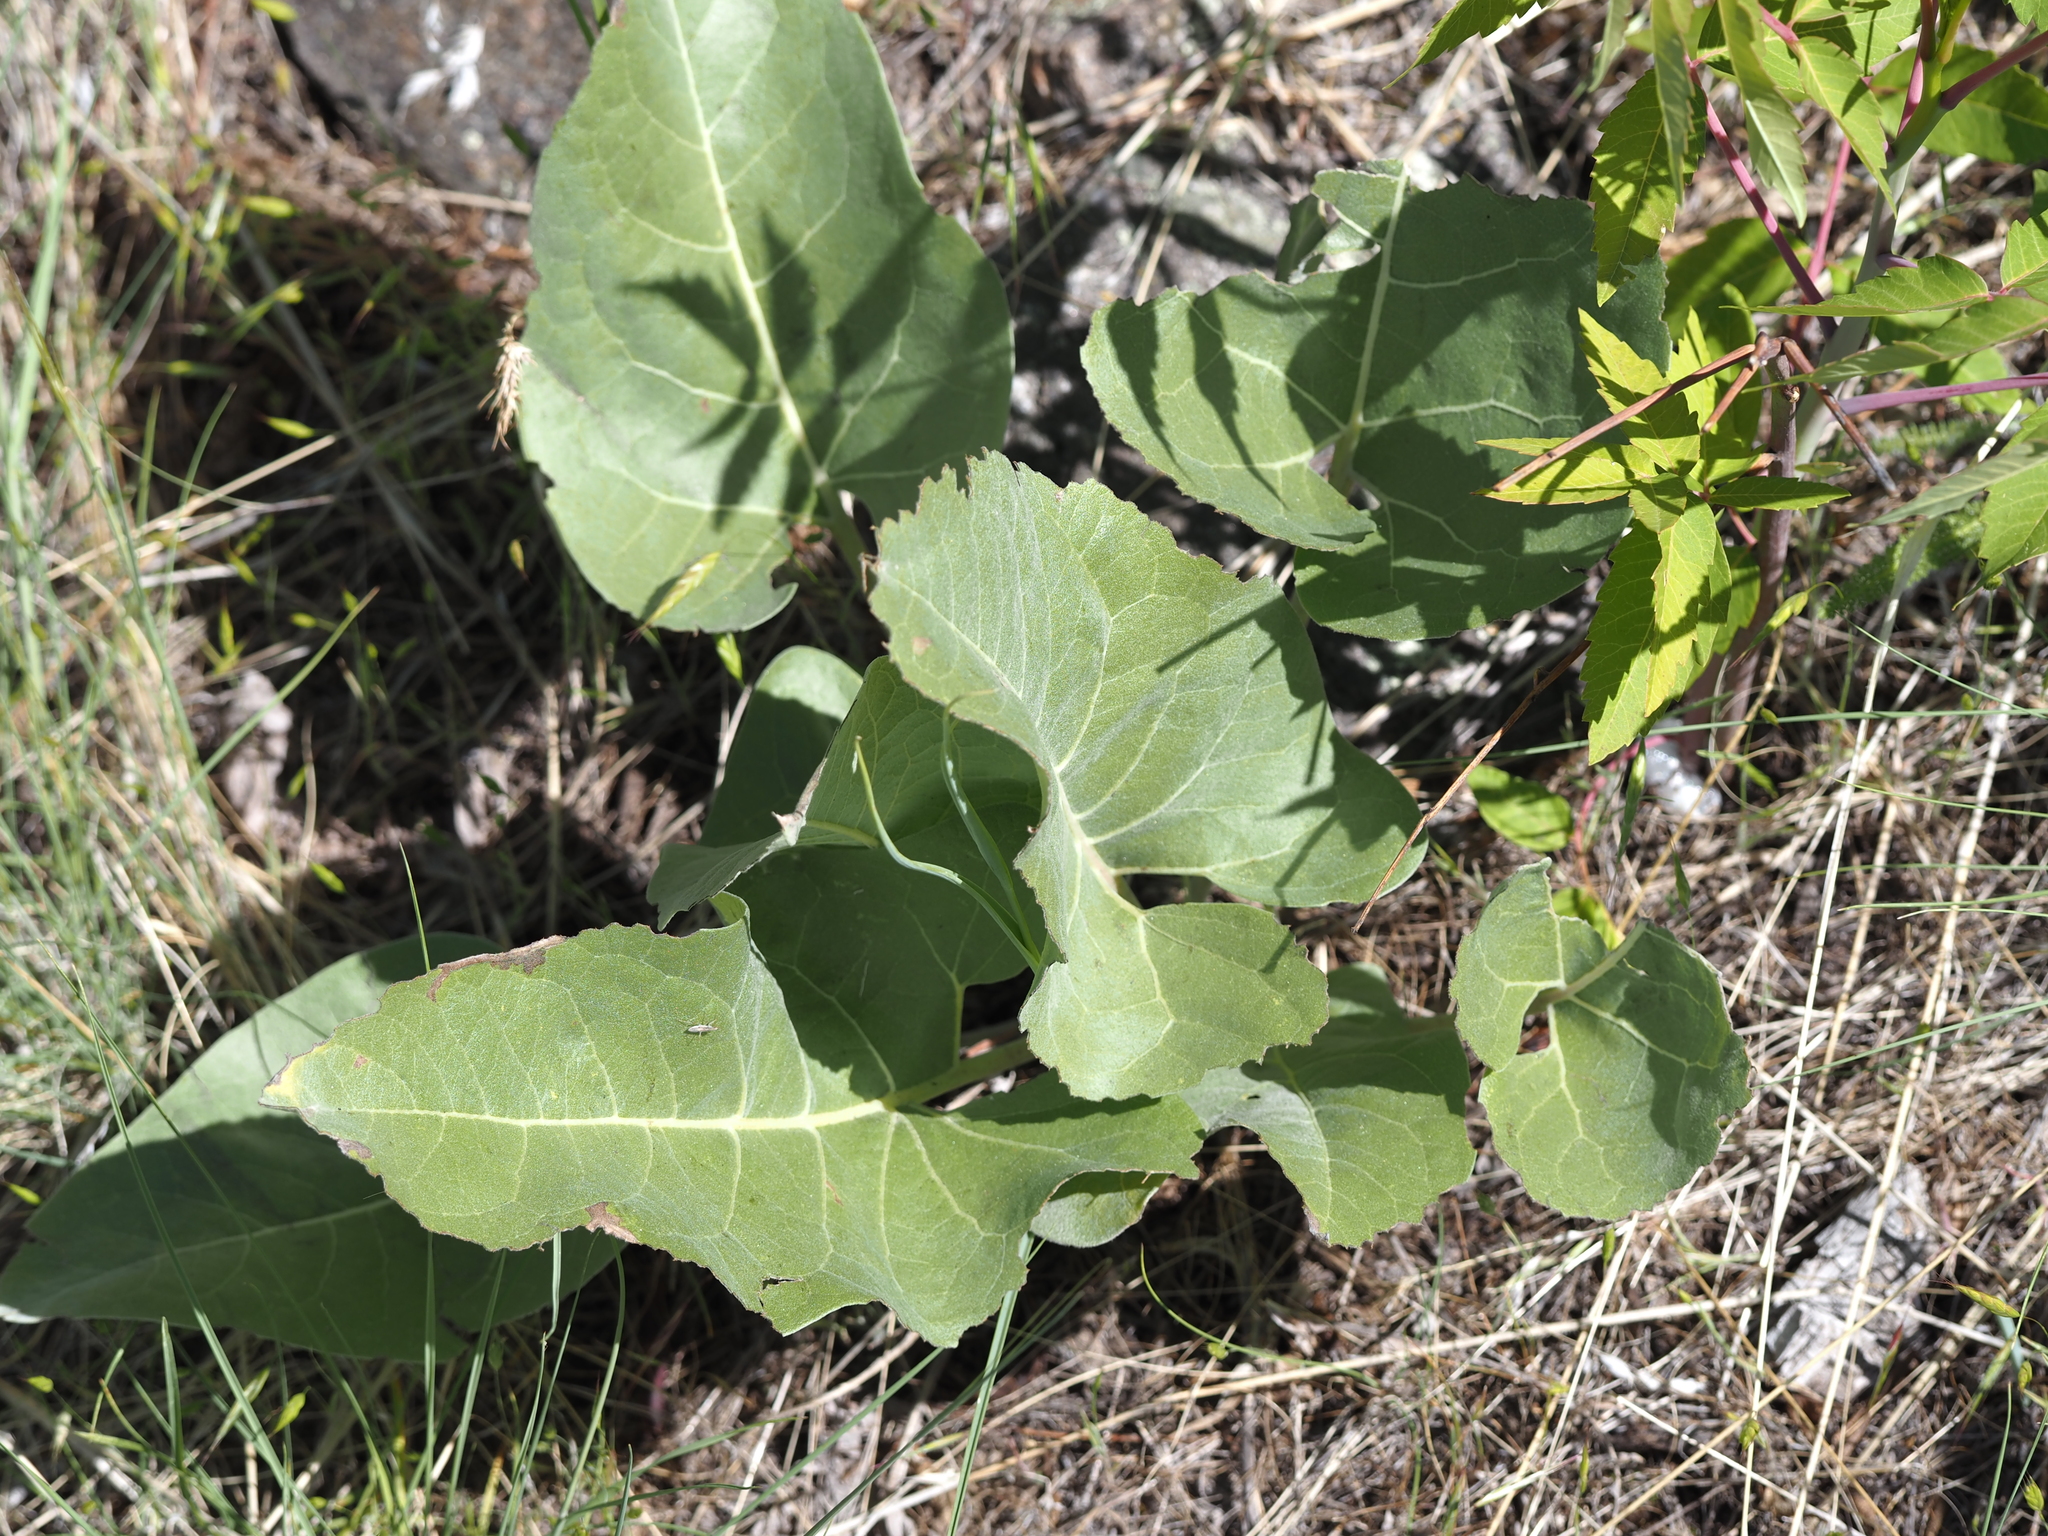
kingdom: Plantae
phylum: Tracheophyta
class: Magnoliopsida
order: Asterales
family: Asteraceae
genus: Wyethia
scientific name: Wyethia sagittata
